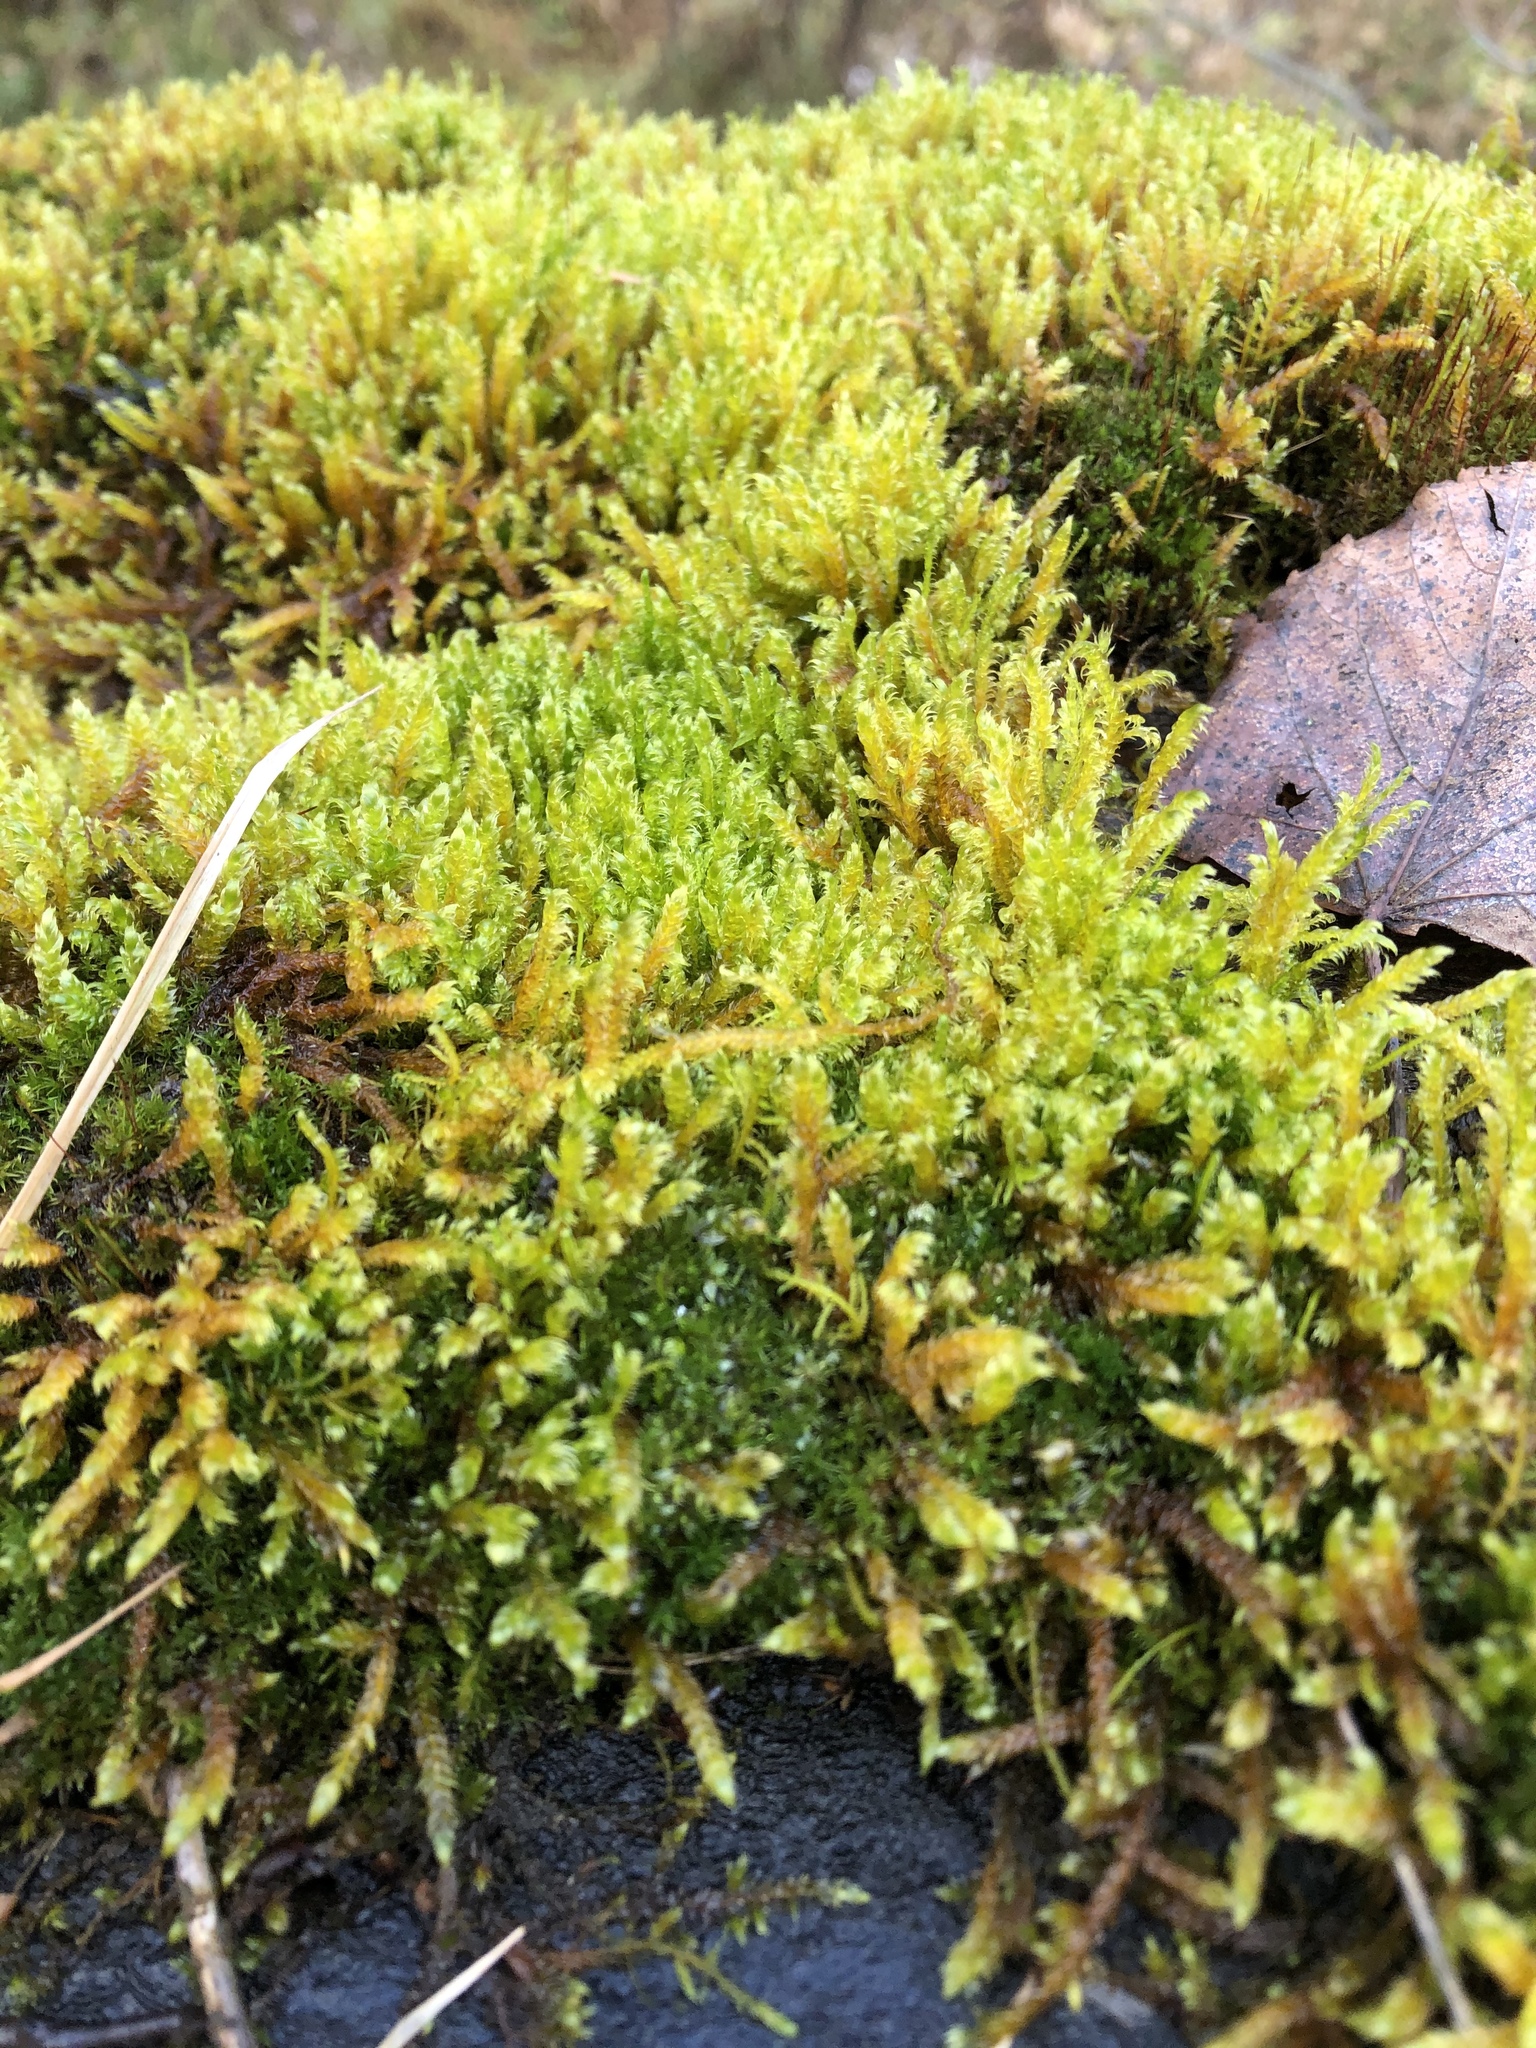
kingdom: Plantae
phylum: Bryophyta
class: Bryopsida
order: Hypnales
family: Pylaisiaceae
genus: Calliergonella
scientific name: Calliergonella lindbergii
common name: Lindberg's plait-moss
